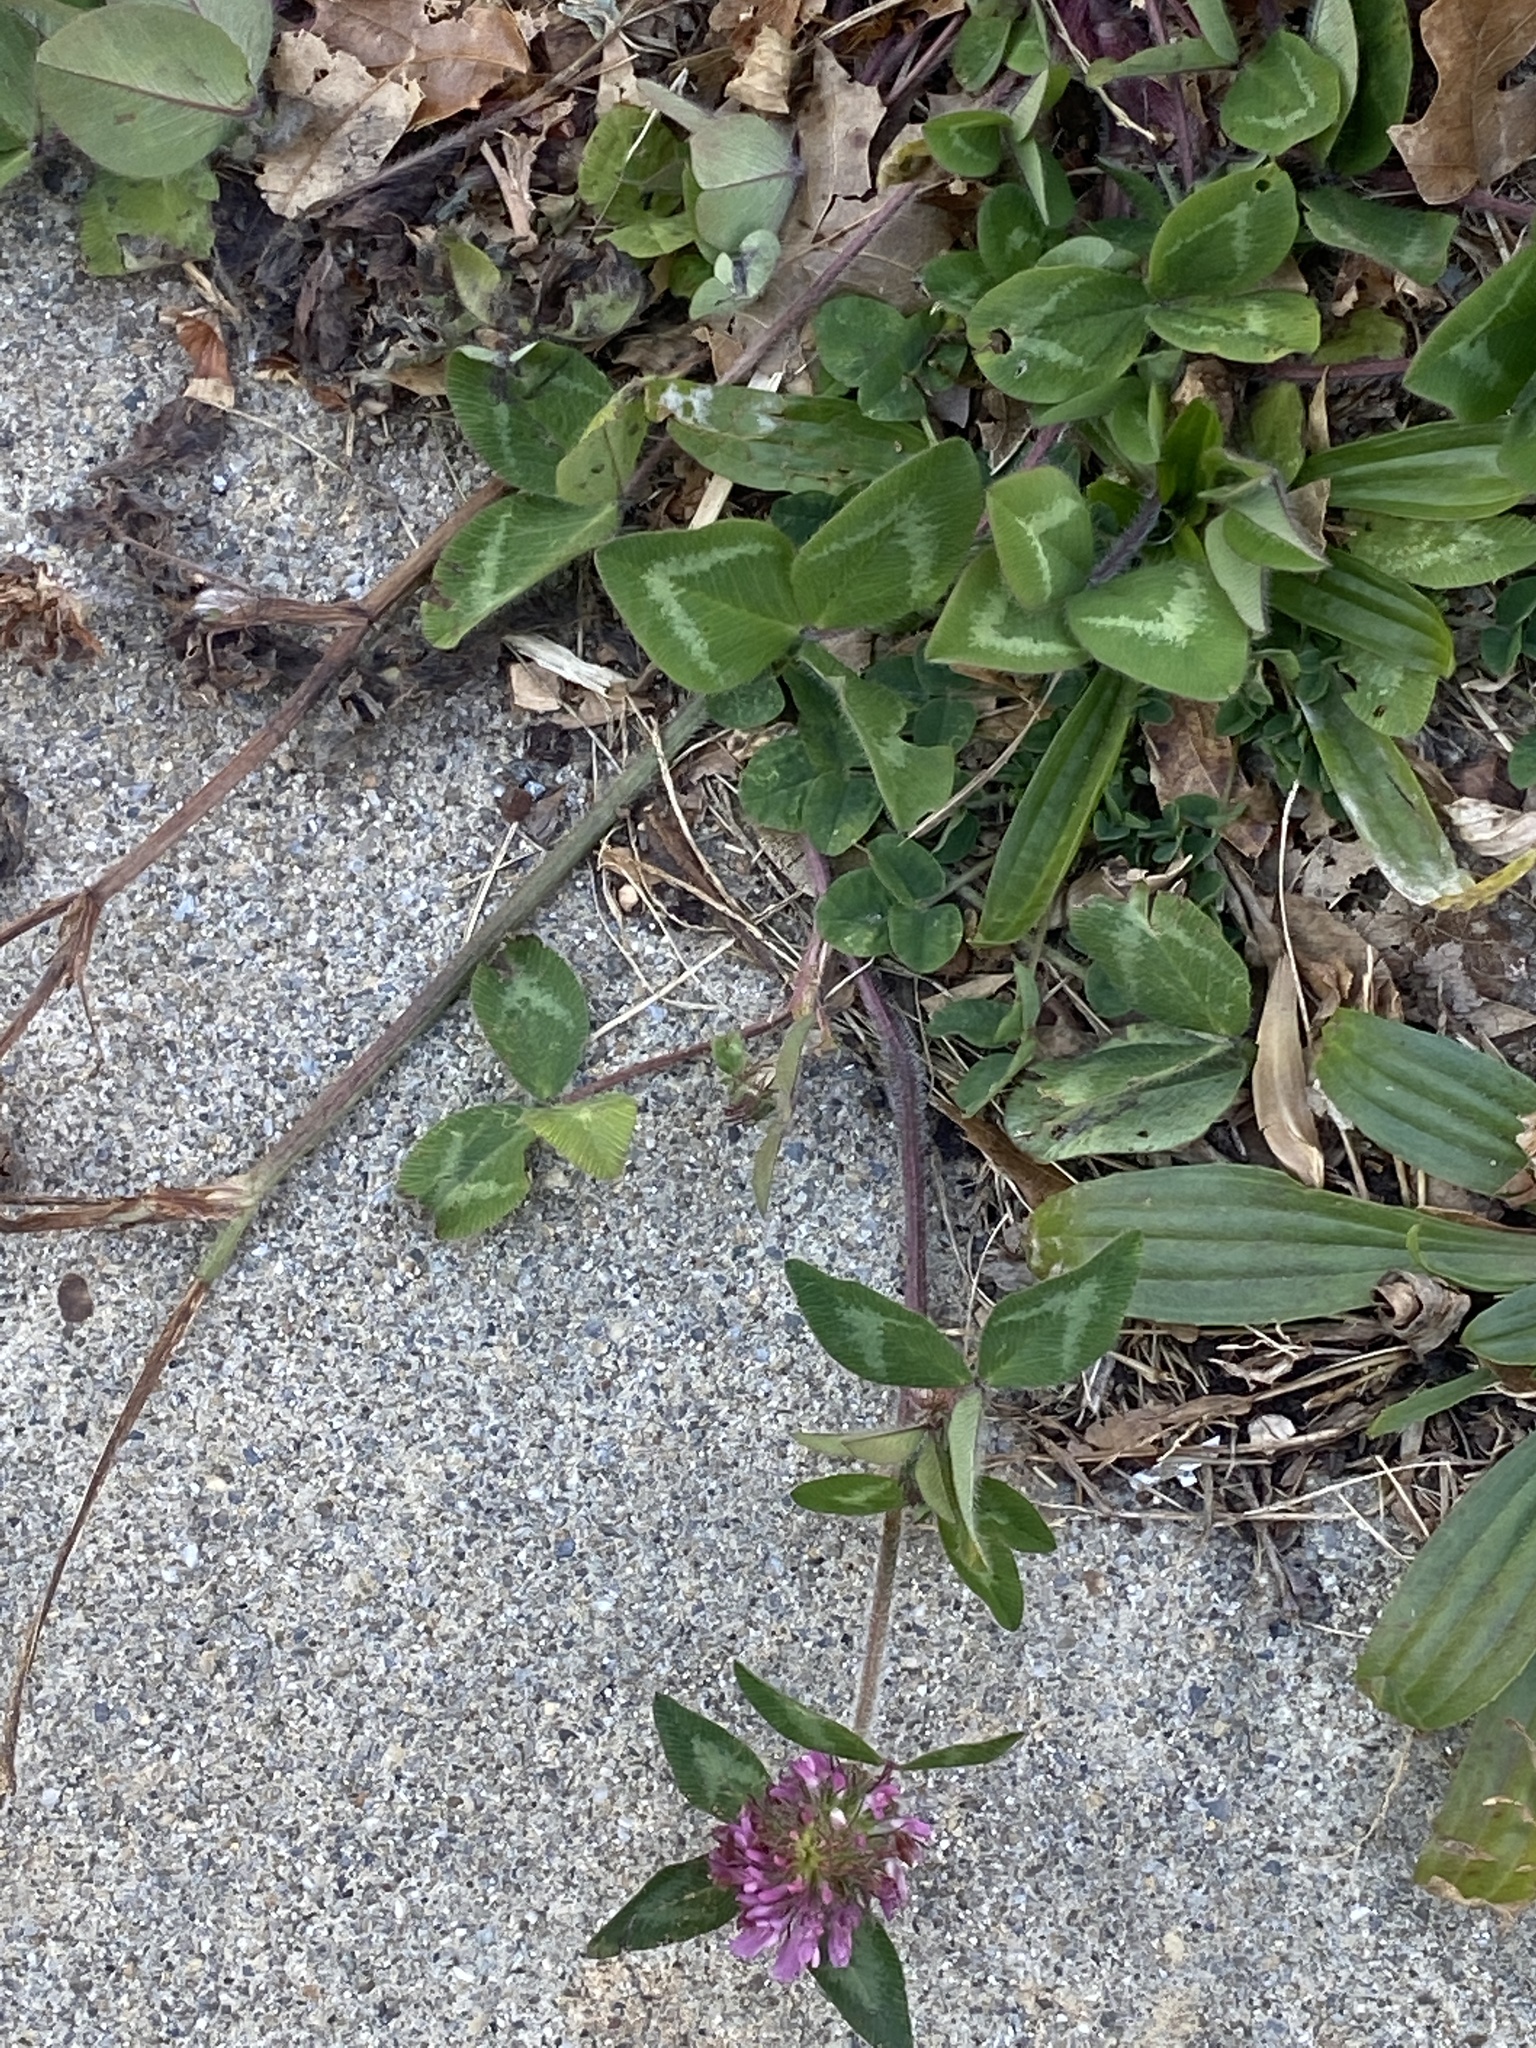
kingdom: Plantae
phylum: Tracheophyta
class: Magnoliopsida
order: Fabales
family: Fabaceae
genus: Trifolium
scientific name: Trifolium pratense
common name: Red clover
